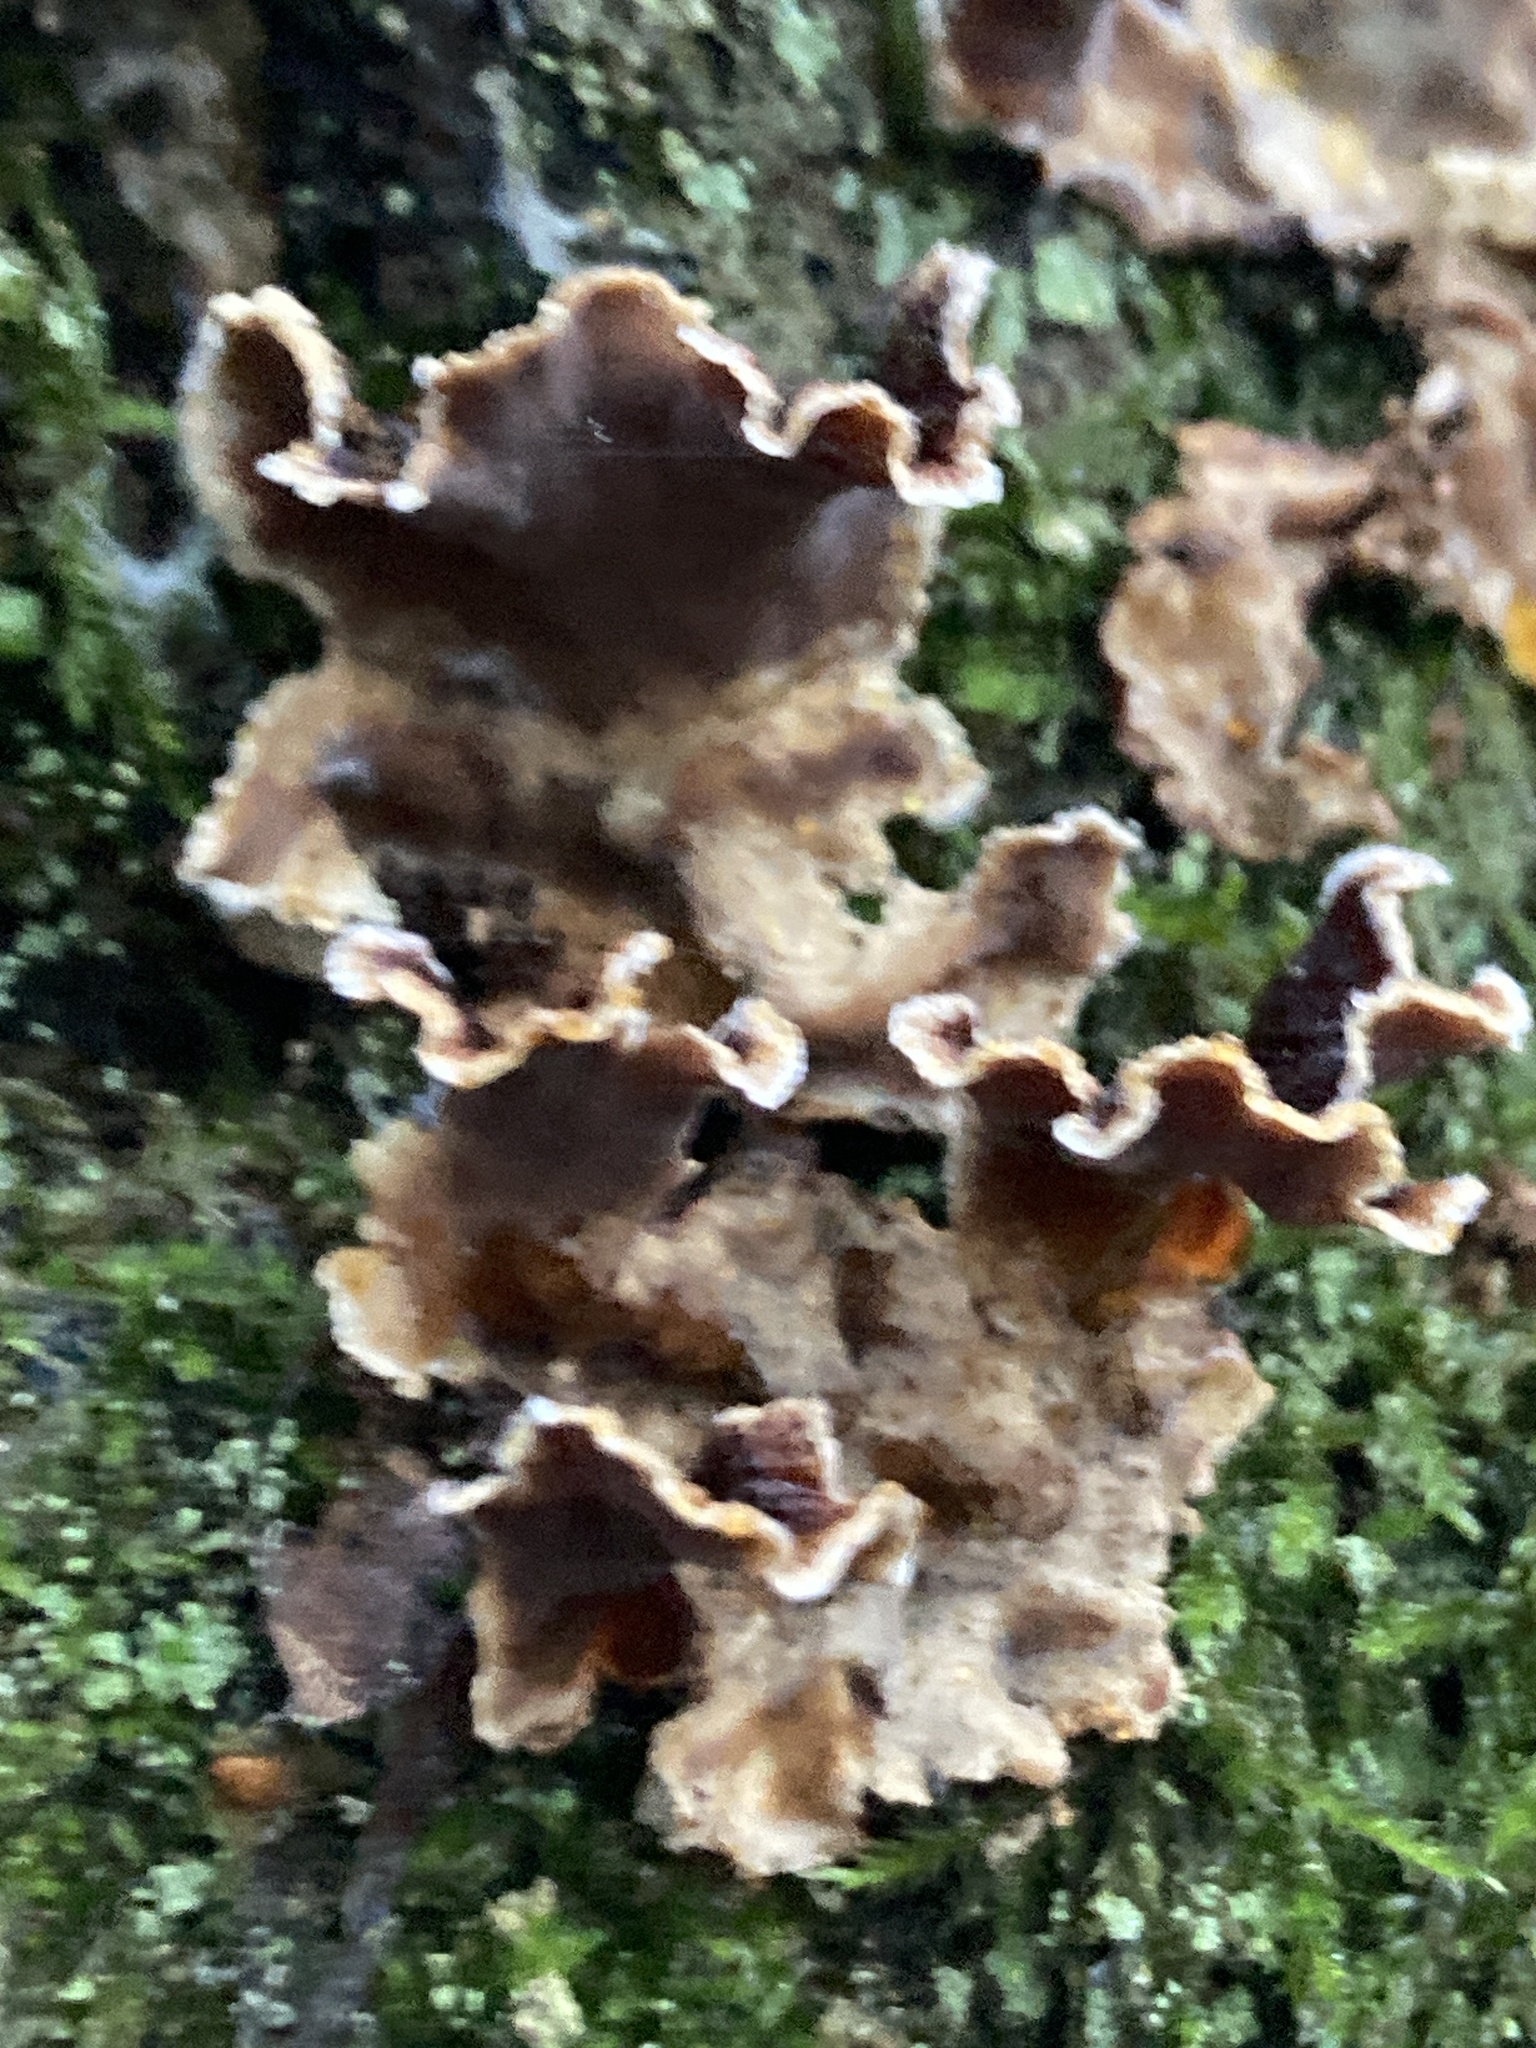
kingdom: Fungi
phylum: Basidiomycota
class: Agaricomycetes
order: Russulales
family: Stereaceae
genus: Stereum
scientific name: Stereum gausapatum
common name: Bleeding oak crust
